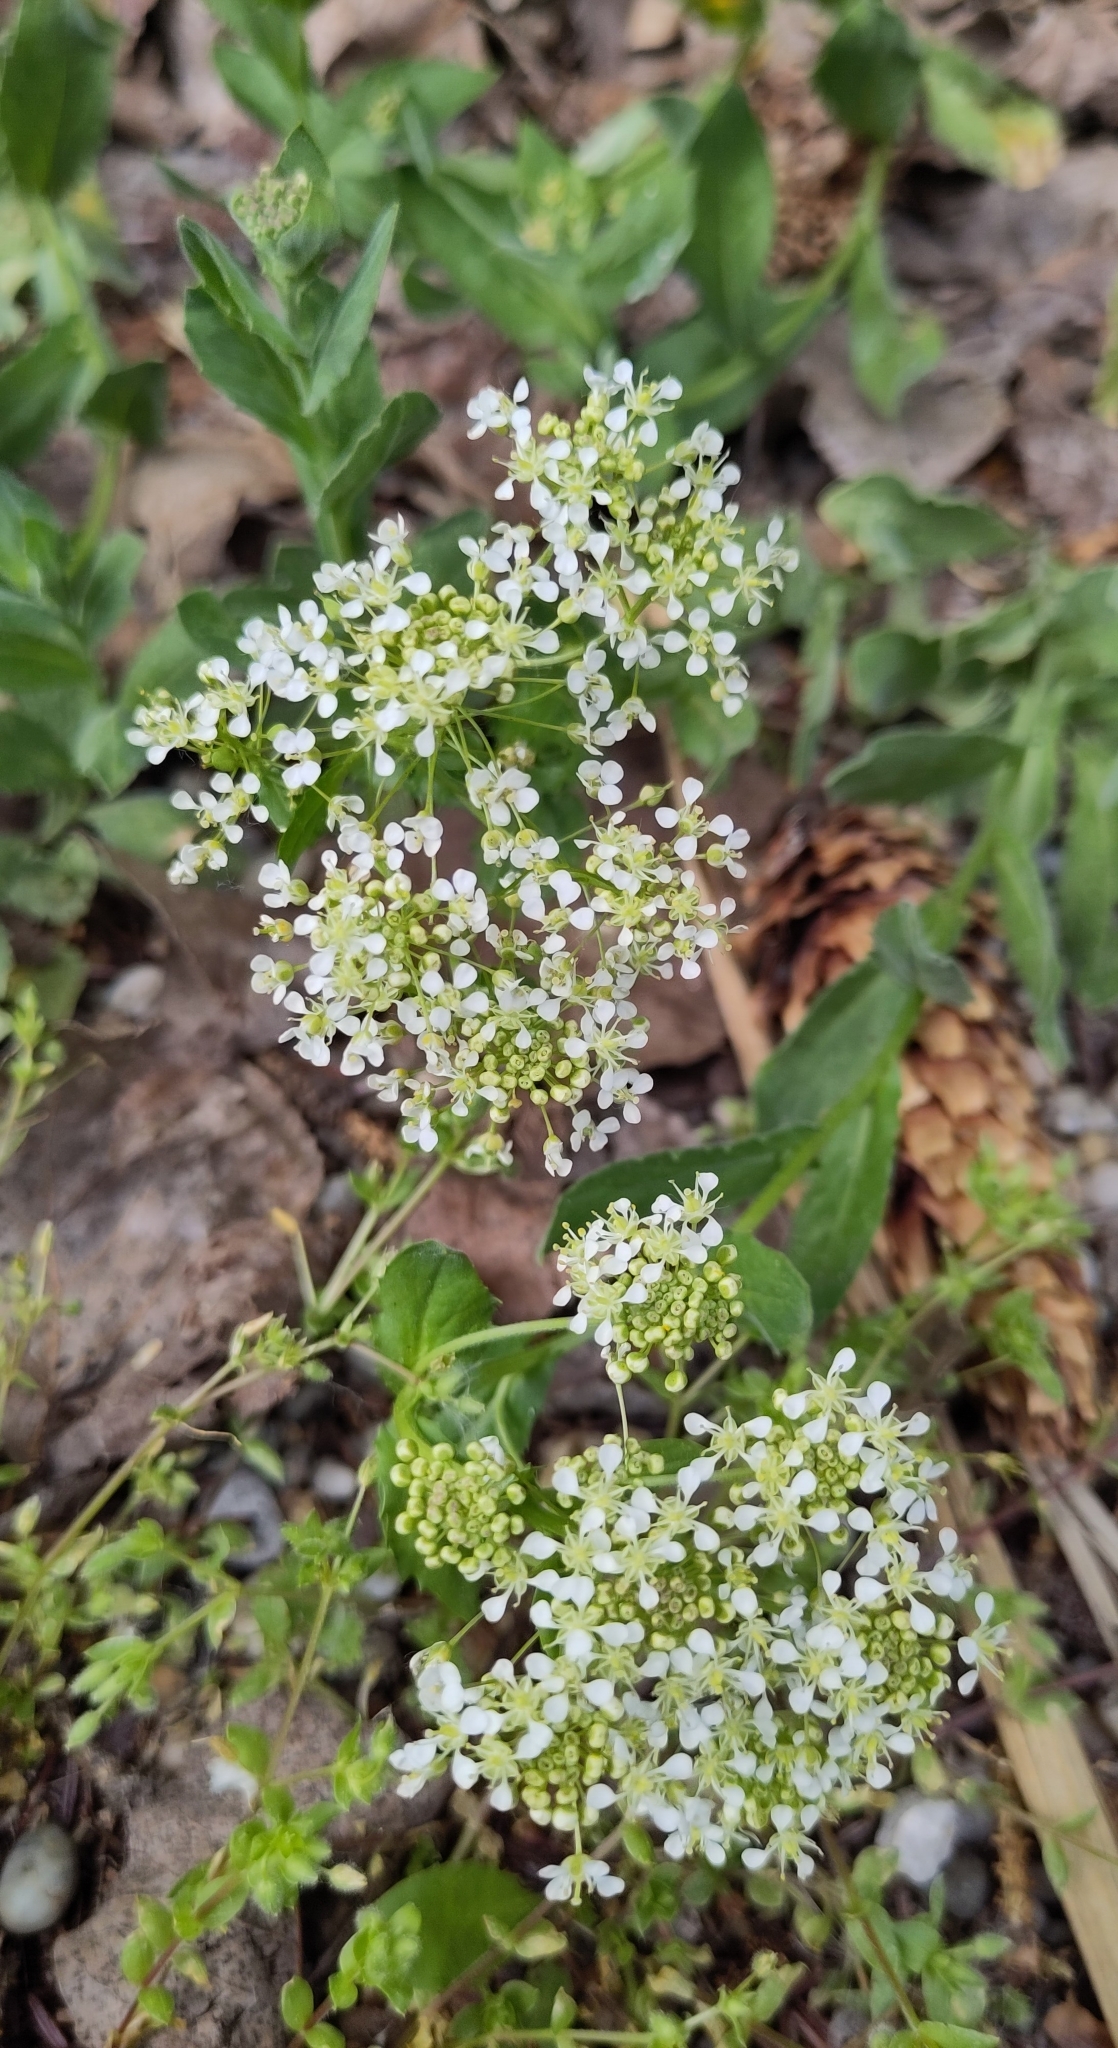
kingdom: Plantae
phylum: Tracheophyta
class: Magnoliopsida
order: Brassicales
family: Brassicaceae
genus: Lepidium
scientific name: Lepidium draba
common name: Hoary cress
